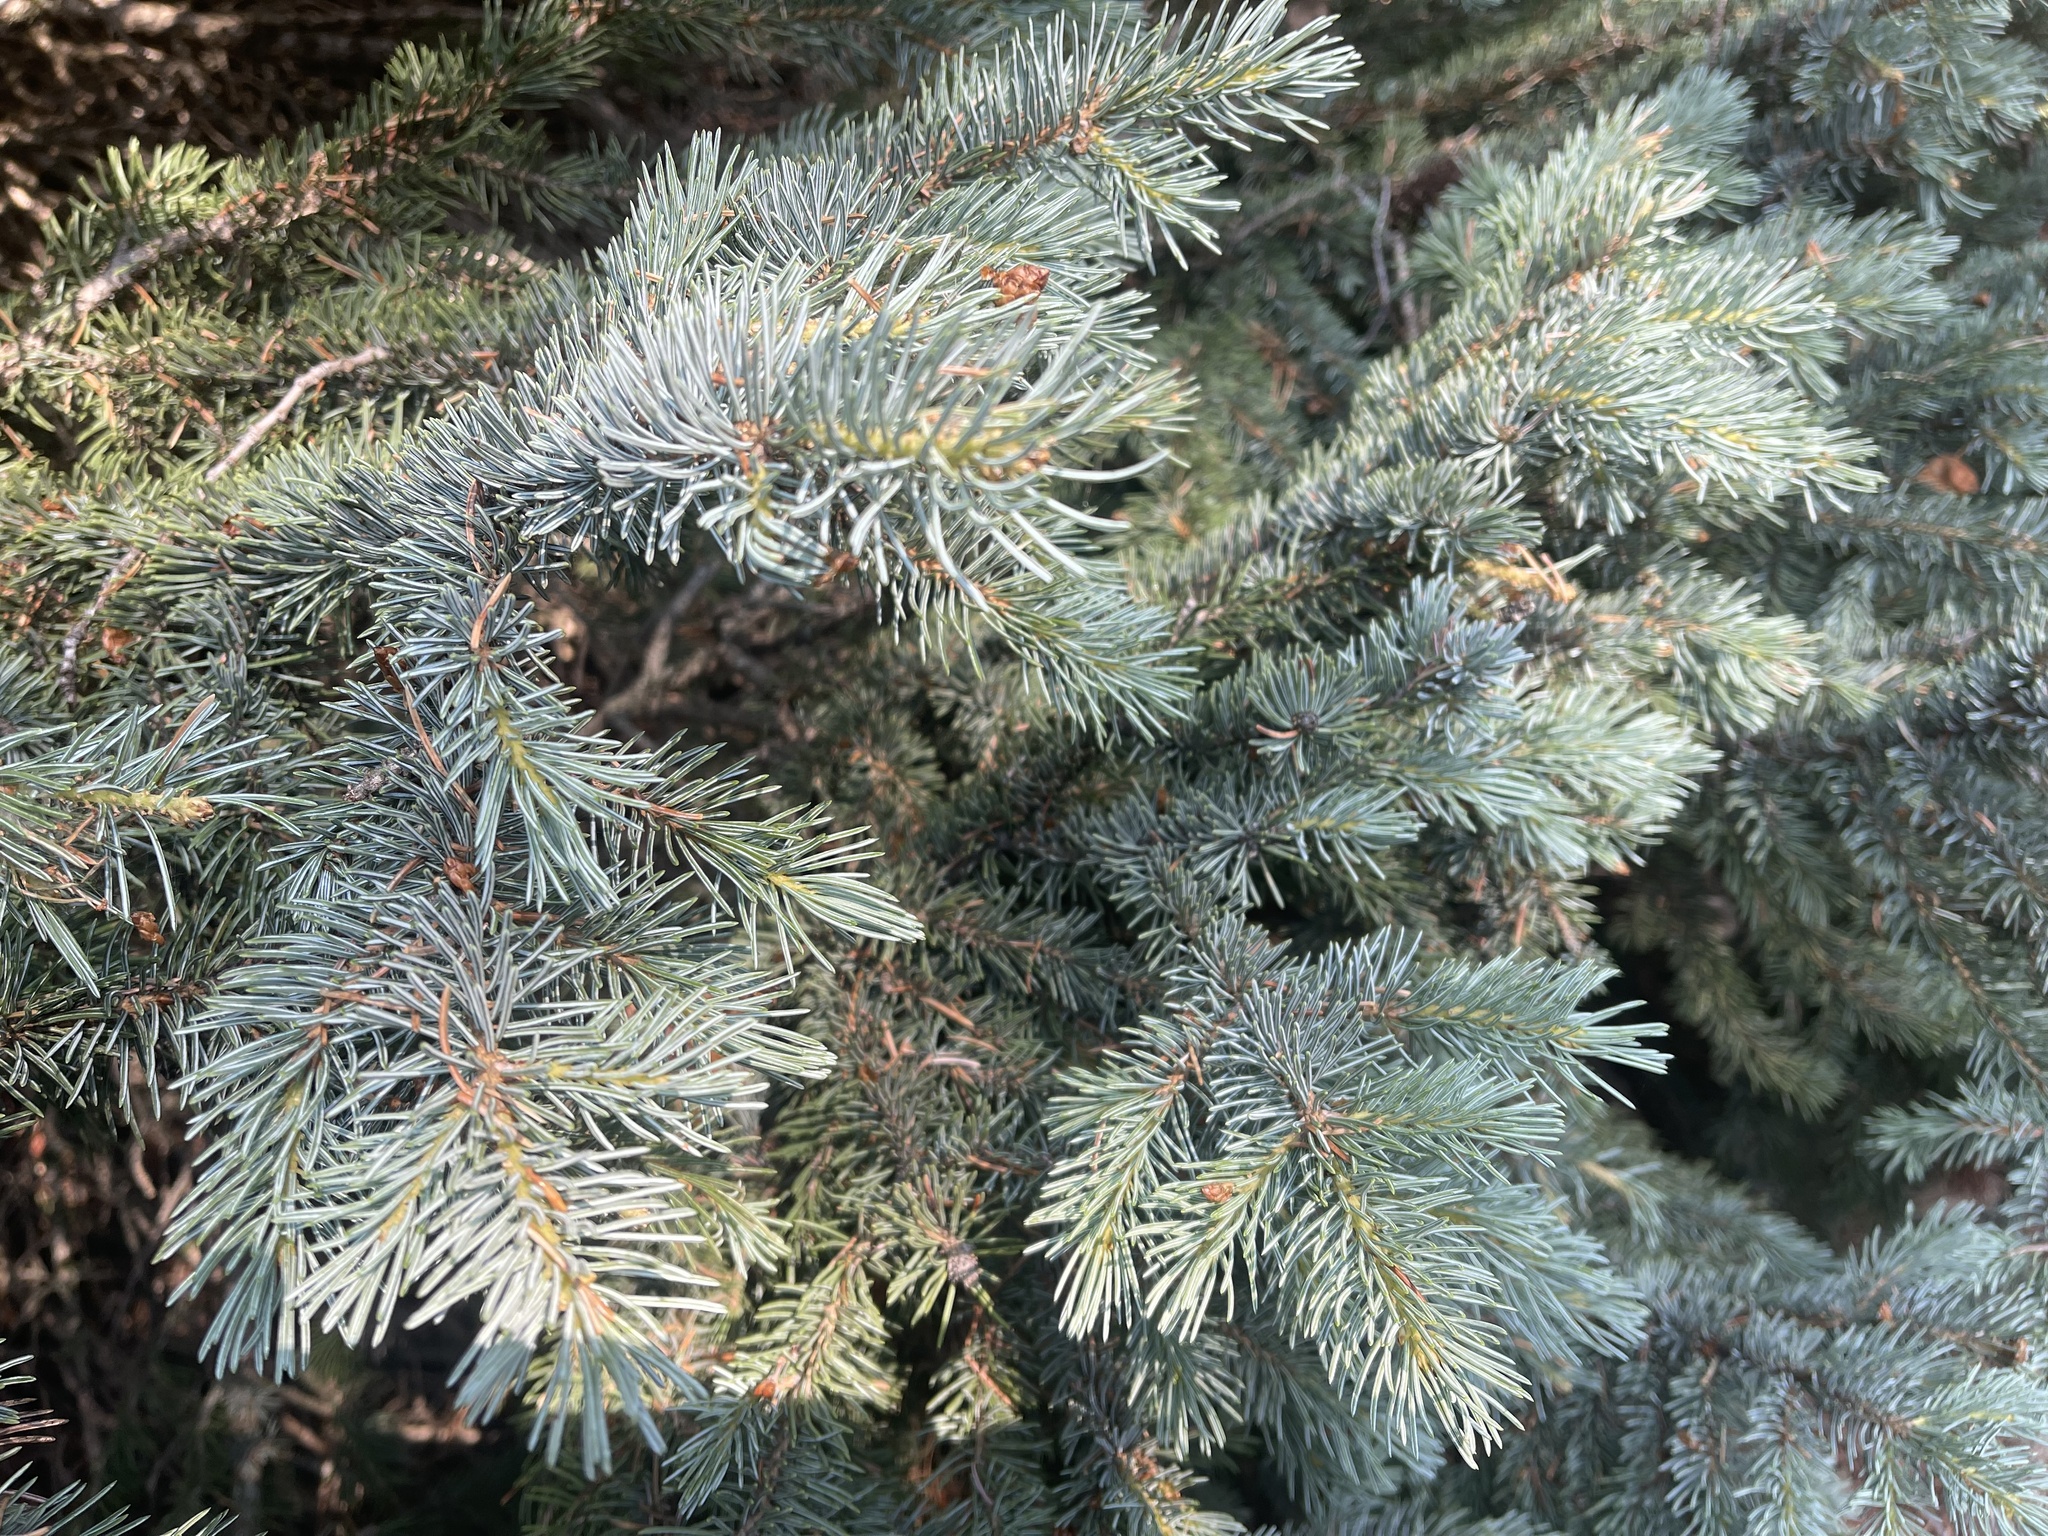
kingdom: Plantae
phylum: Tracheophyta
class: Pinopsida
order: Pinales
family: Pinaceae
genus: Picea
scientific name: Picea pungens
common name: Colorado spruce
